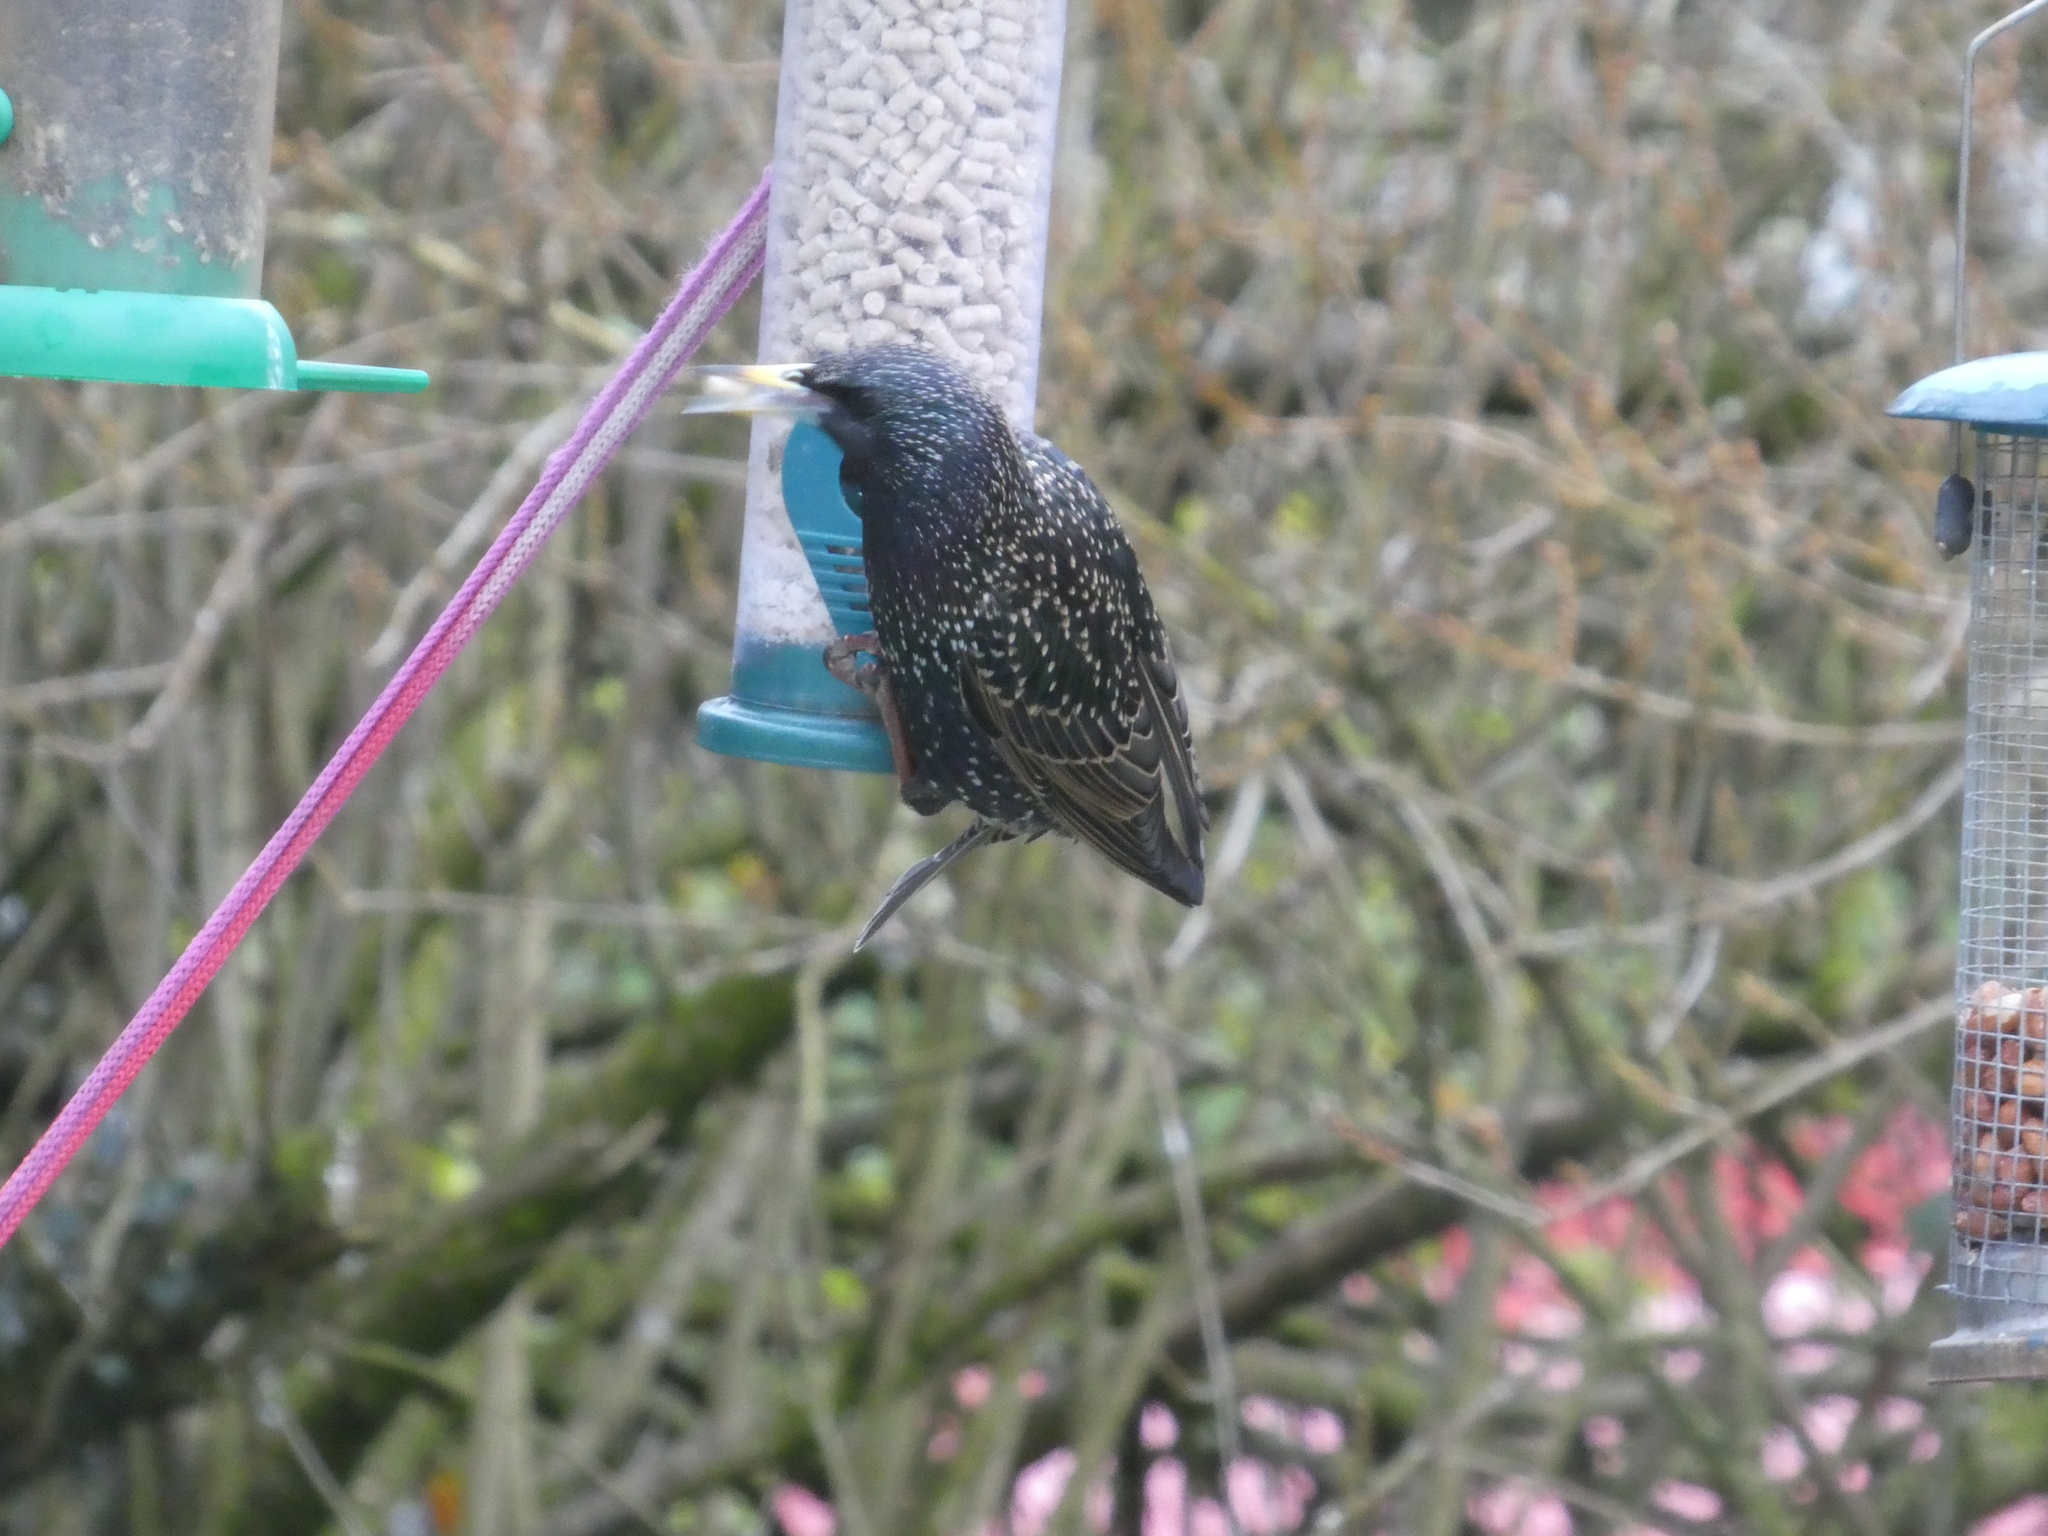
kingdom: Animalia
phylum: Chordata
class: Aves
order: Passeriformes
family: Sturnidae
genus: Sturnus
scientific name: Sturnus vulgaris
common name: Common starling
